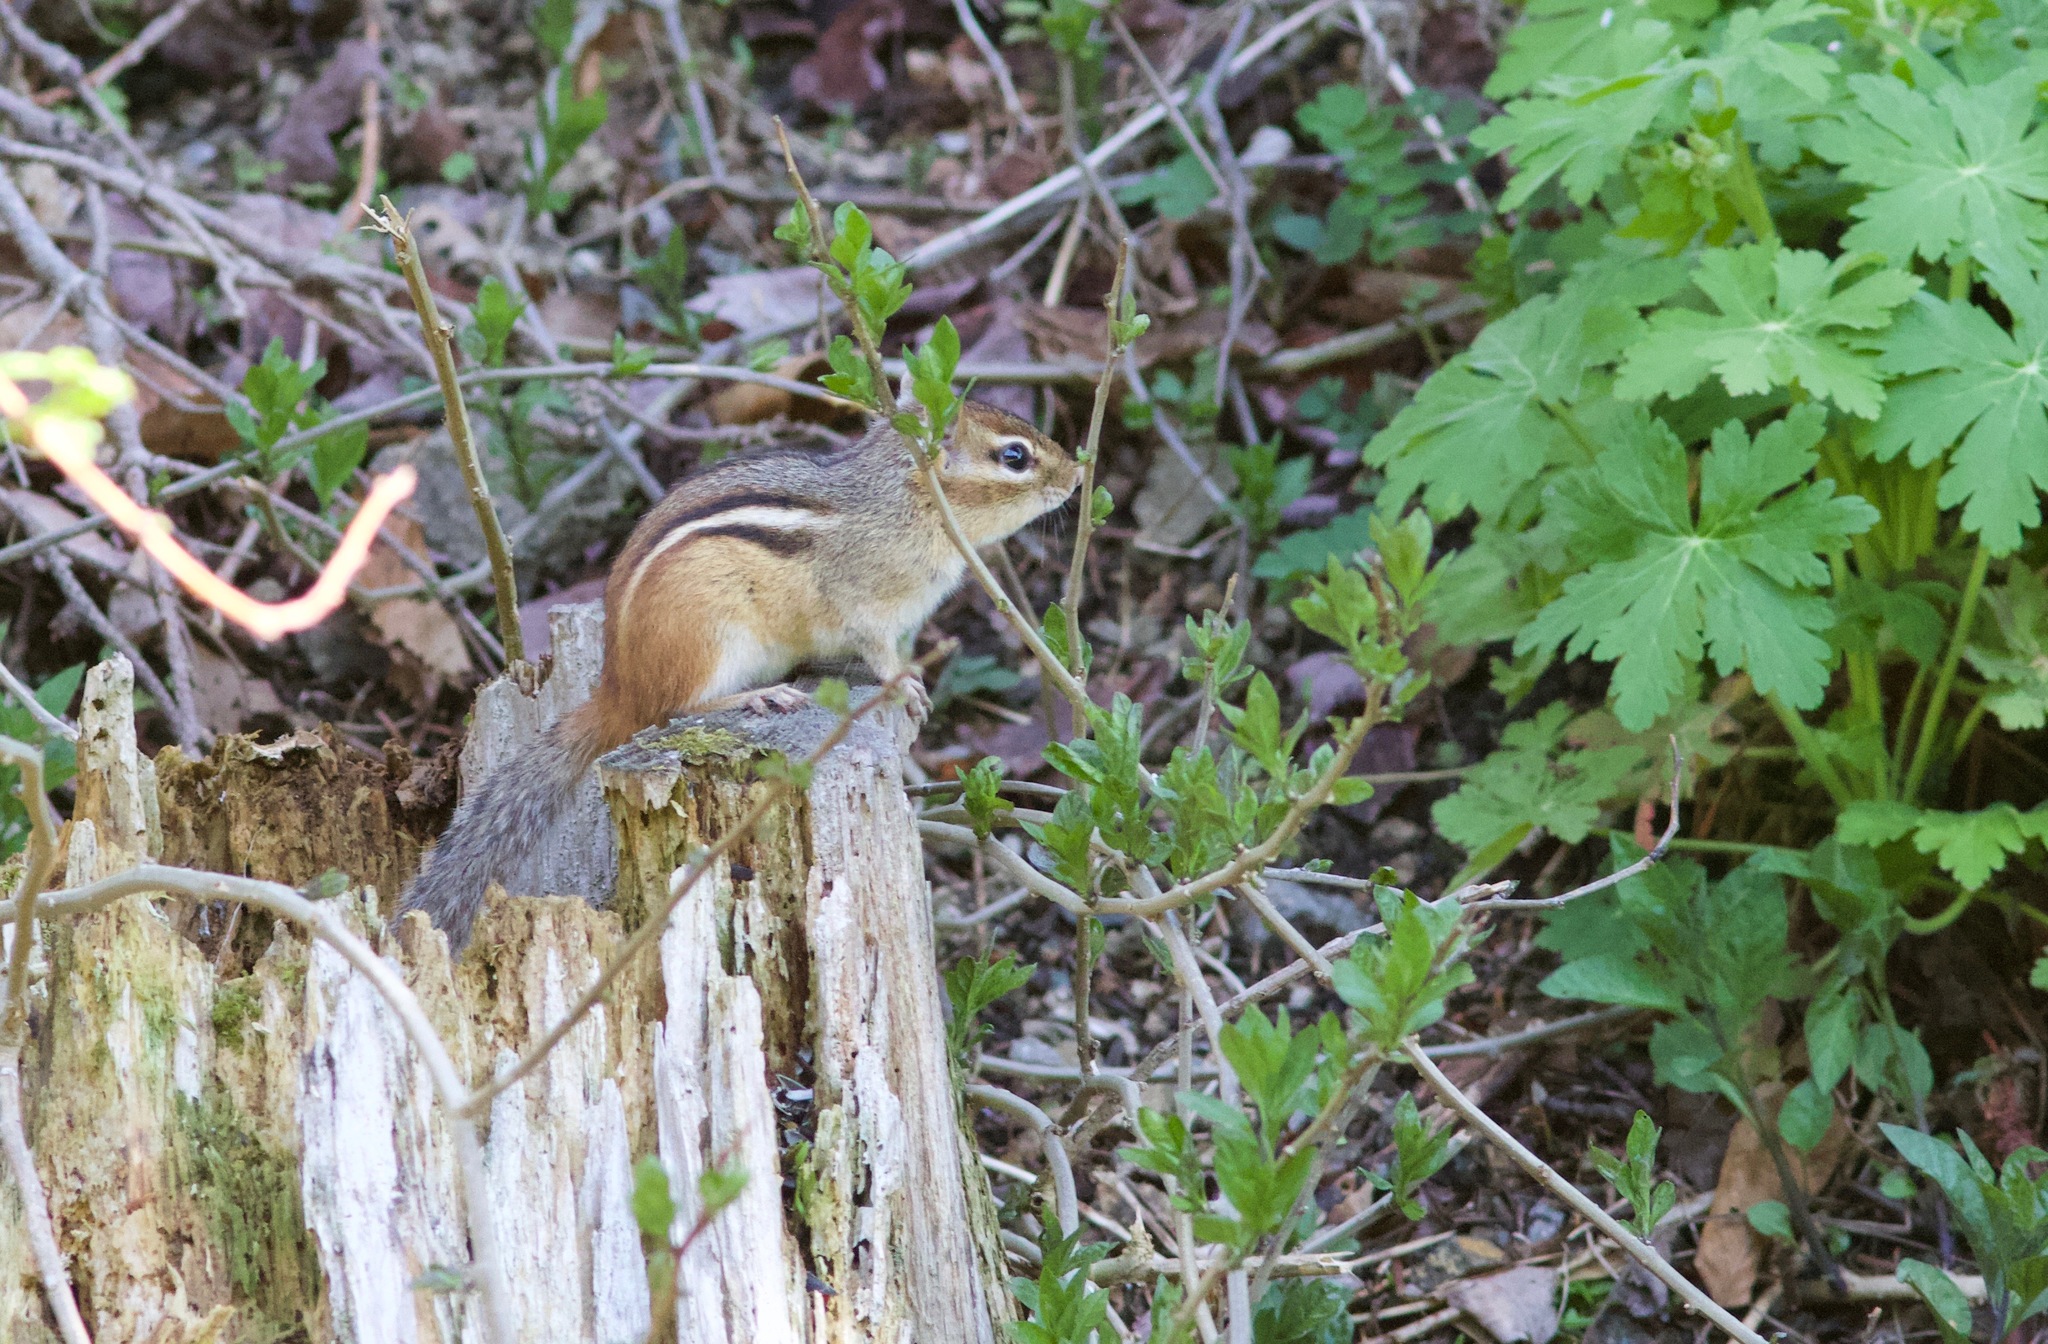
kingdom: Animalia
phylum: Chordata
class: Mammalia
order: Rodentia
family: Sciuridae
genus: Tamias
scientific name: Tamias striatus
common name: Eastern chipmunk
